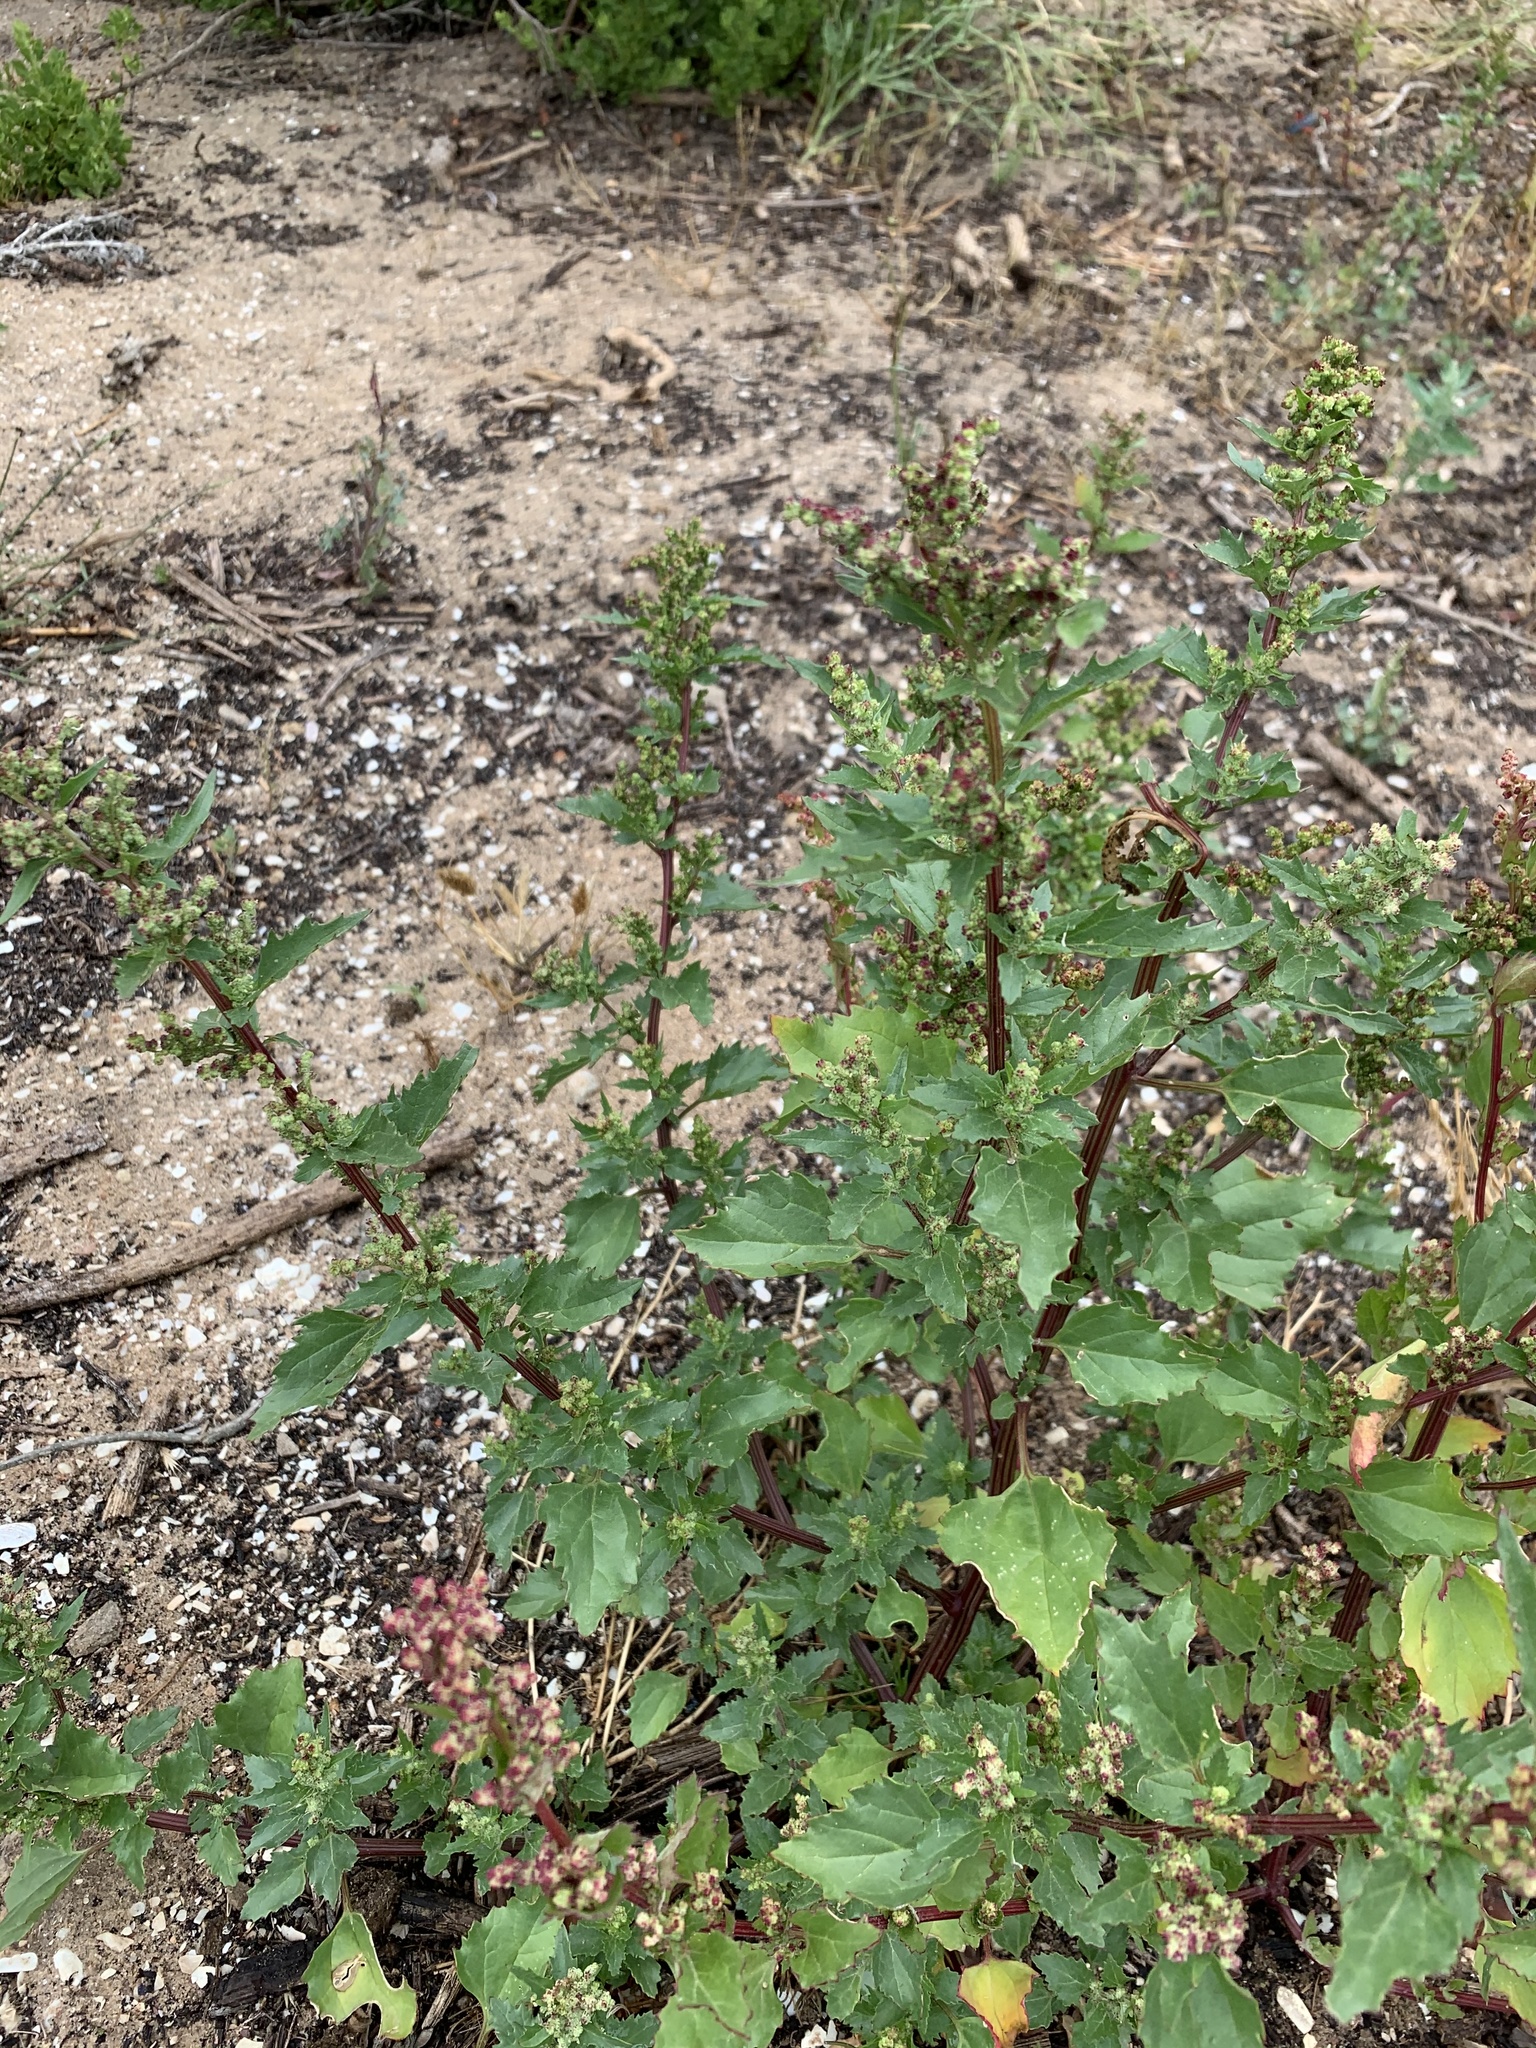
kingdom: Plantae
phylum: Tracheophyta
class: Magnoliopsida
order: Caryophyllales
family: Amaranthaceae
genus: Chenopodiastrum
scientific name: Chenopodiastrum murale
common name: Sowbane
